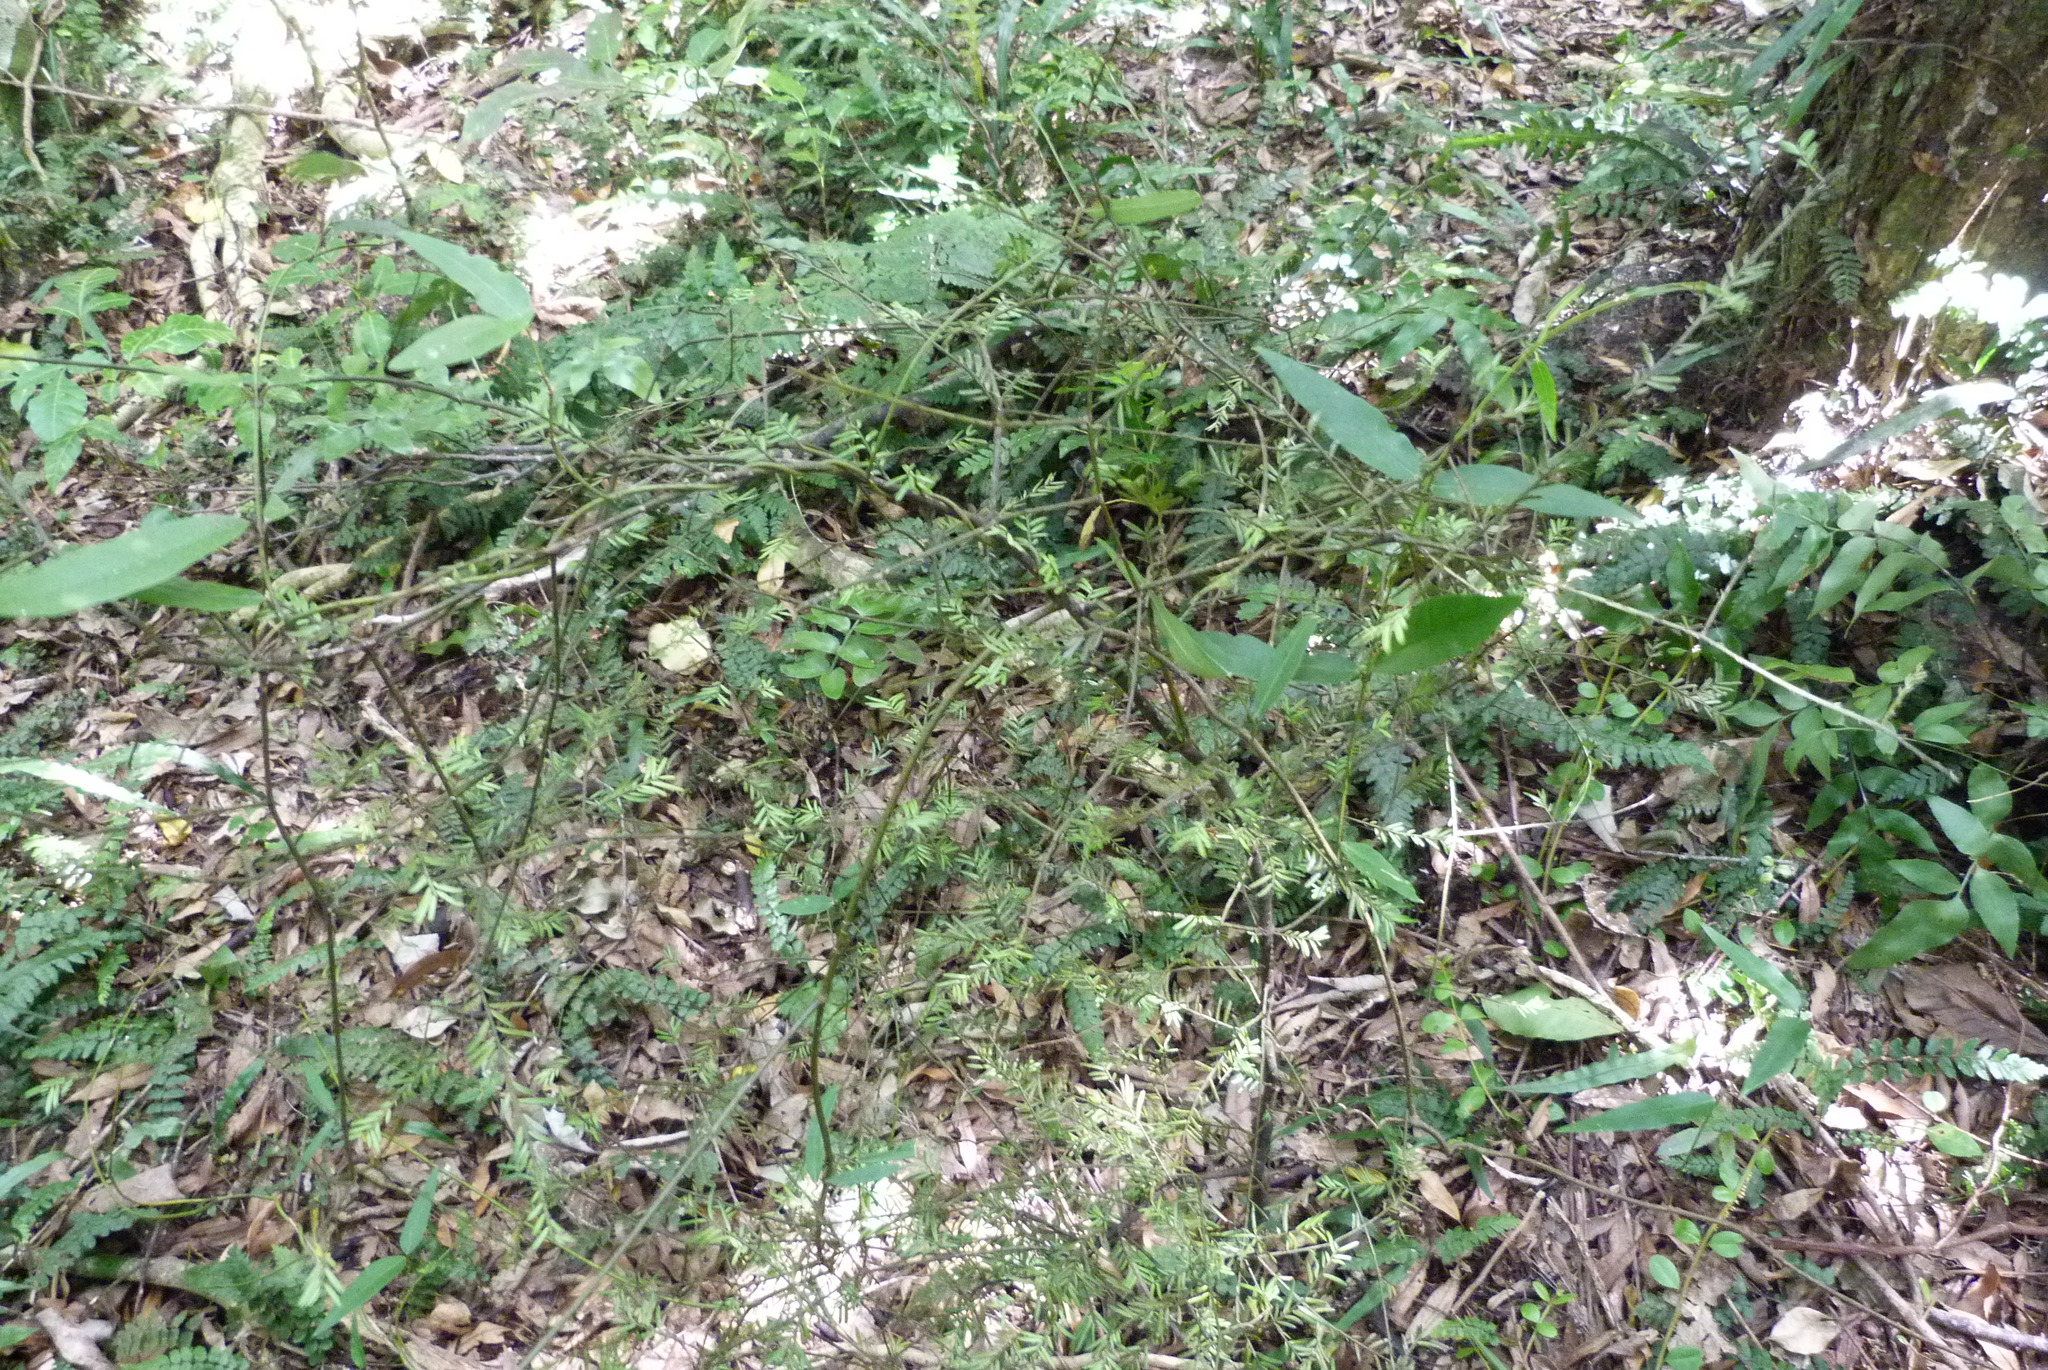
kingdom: Plantae
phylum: Tracheophyta
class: Pinopsida
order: Pinales
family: Podocarpaceae
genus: Prumnopitys
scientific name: Prumnopitys taxifolia
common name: Matai
